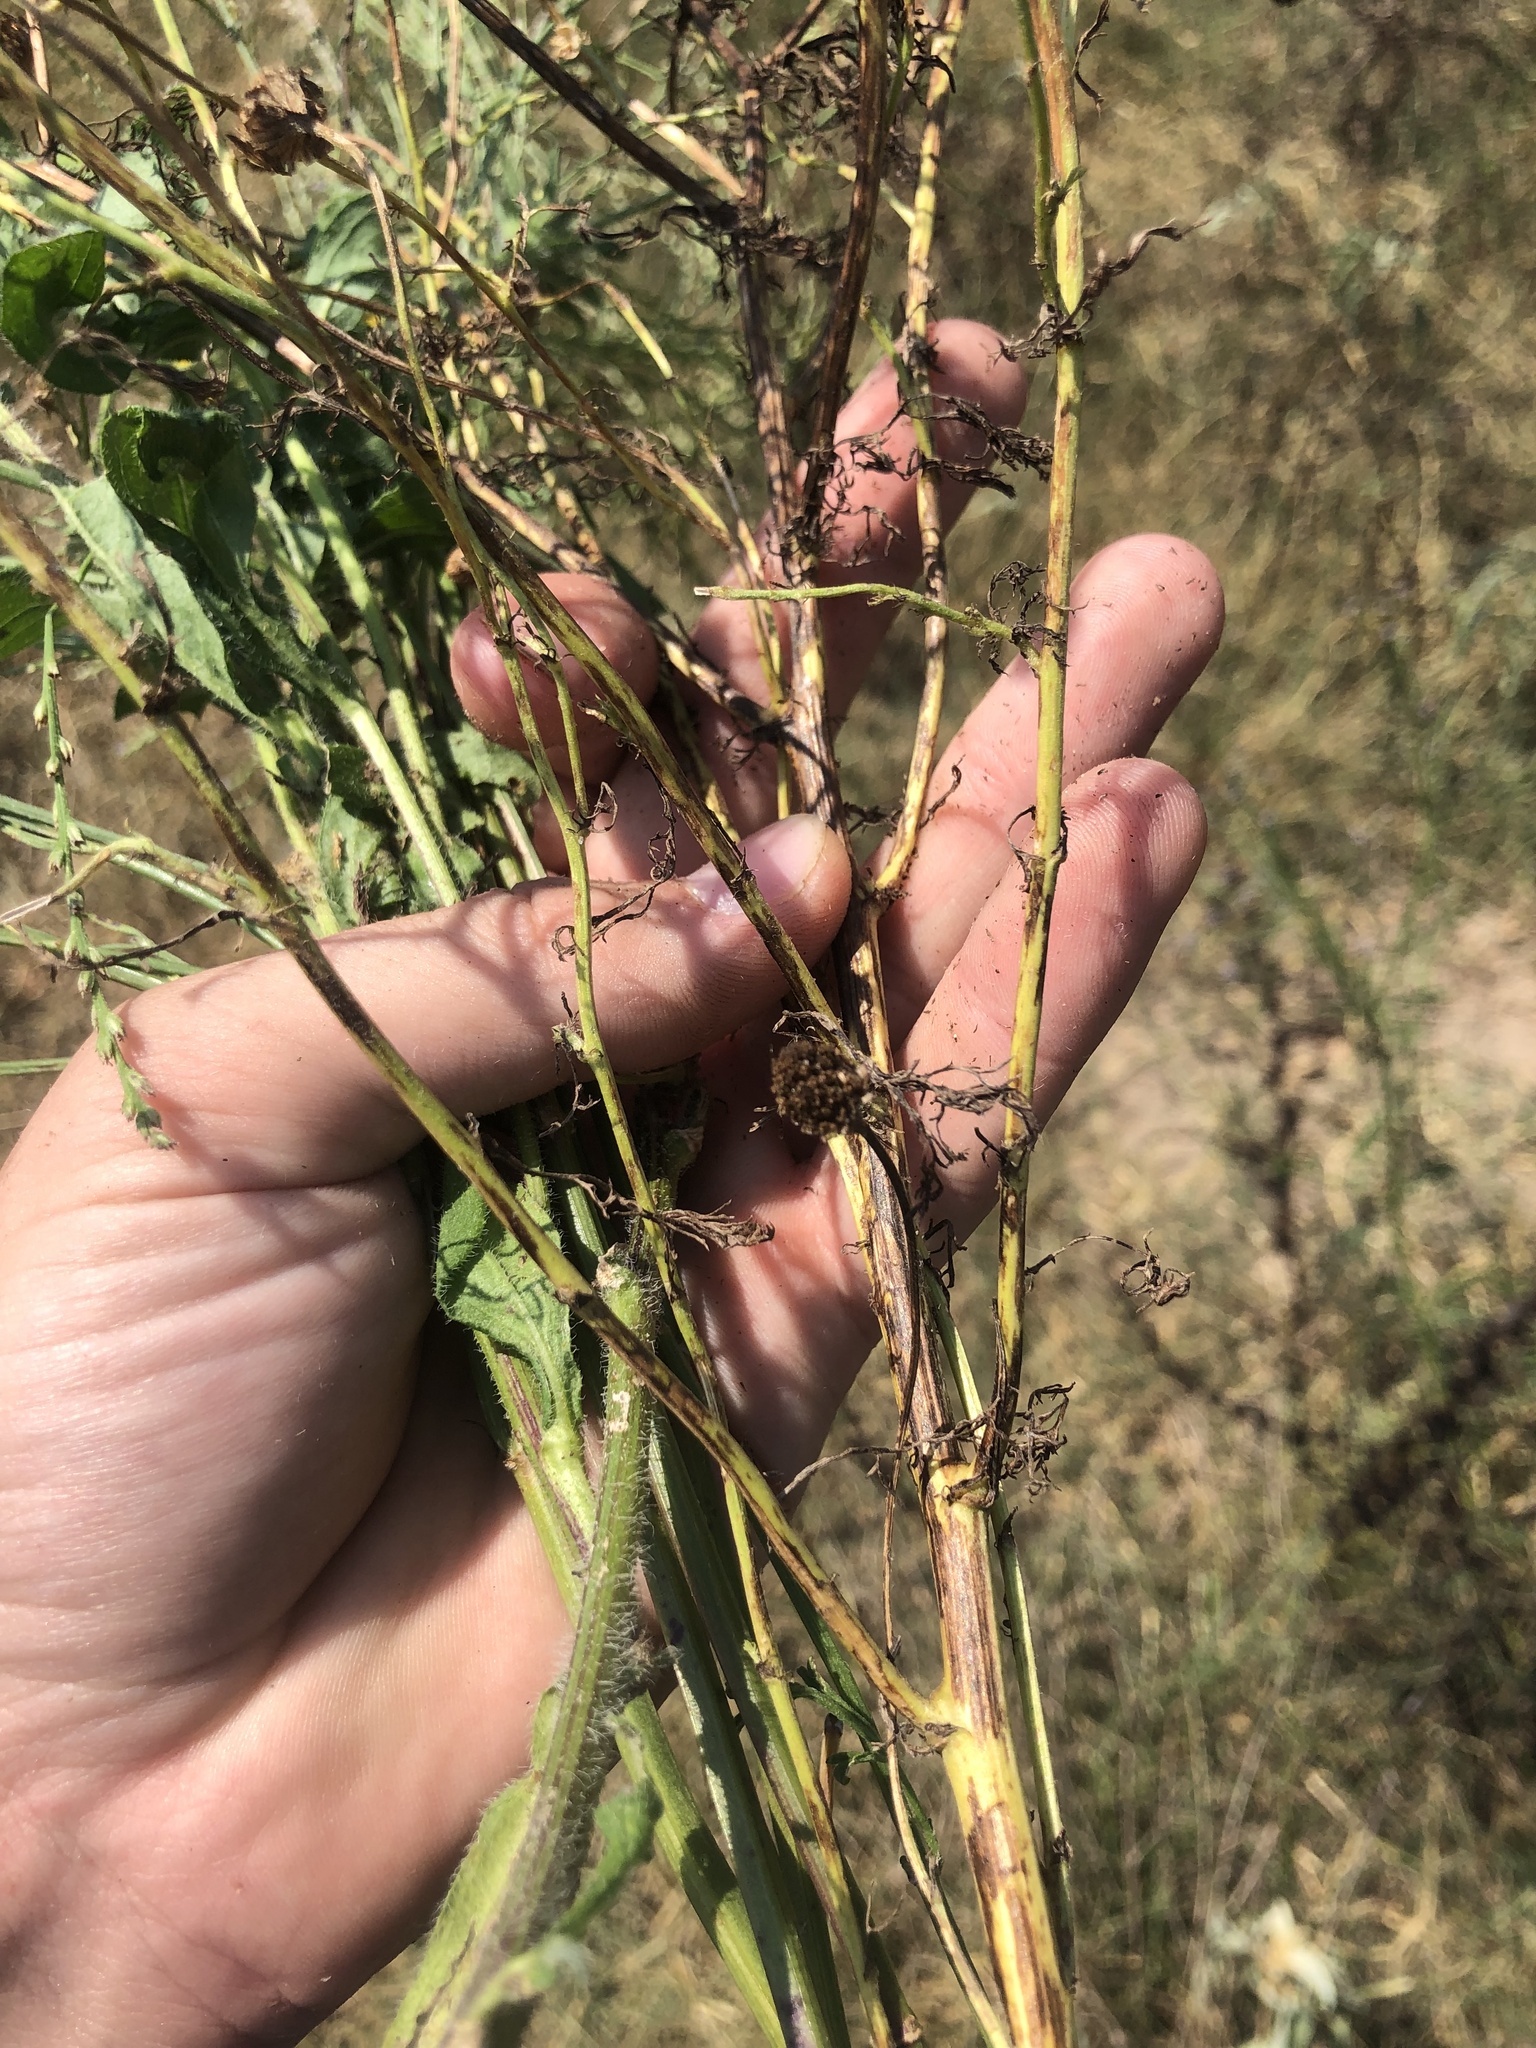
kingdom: Plantae
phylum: Tracheophyta
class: Magnoliopsida
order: Asterales
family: Asteraceae
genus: Rudbeckia
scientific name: Rudbeckia hirta
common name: Black-eyed-susan
